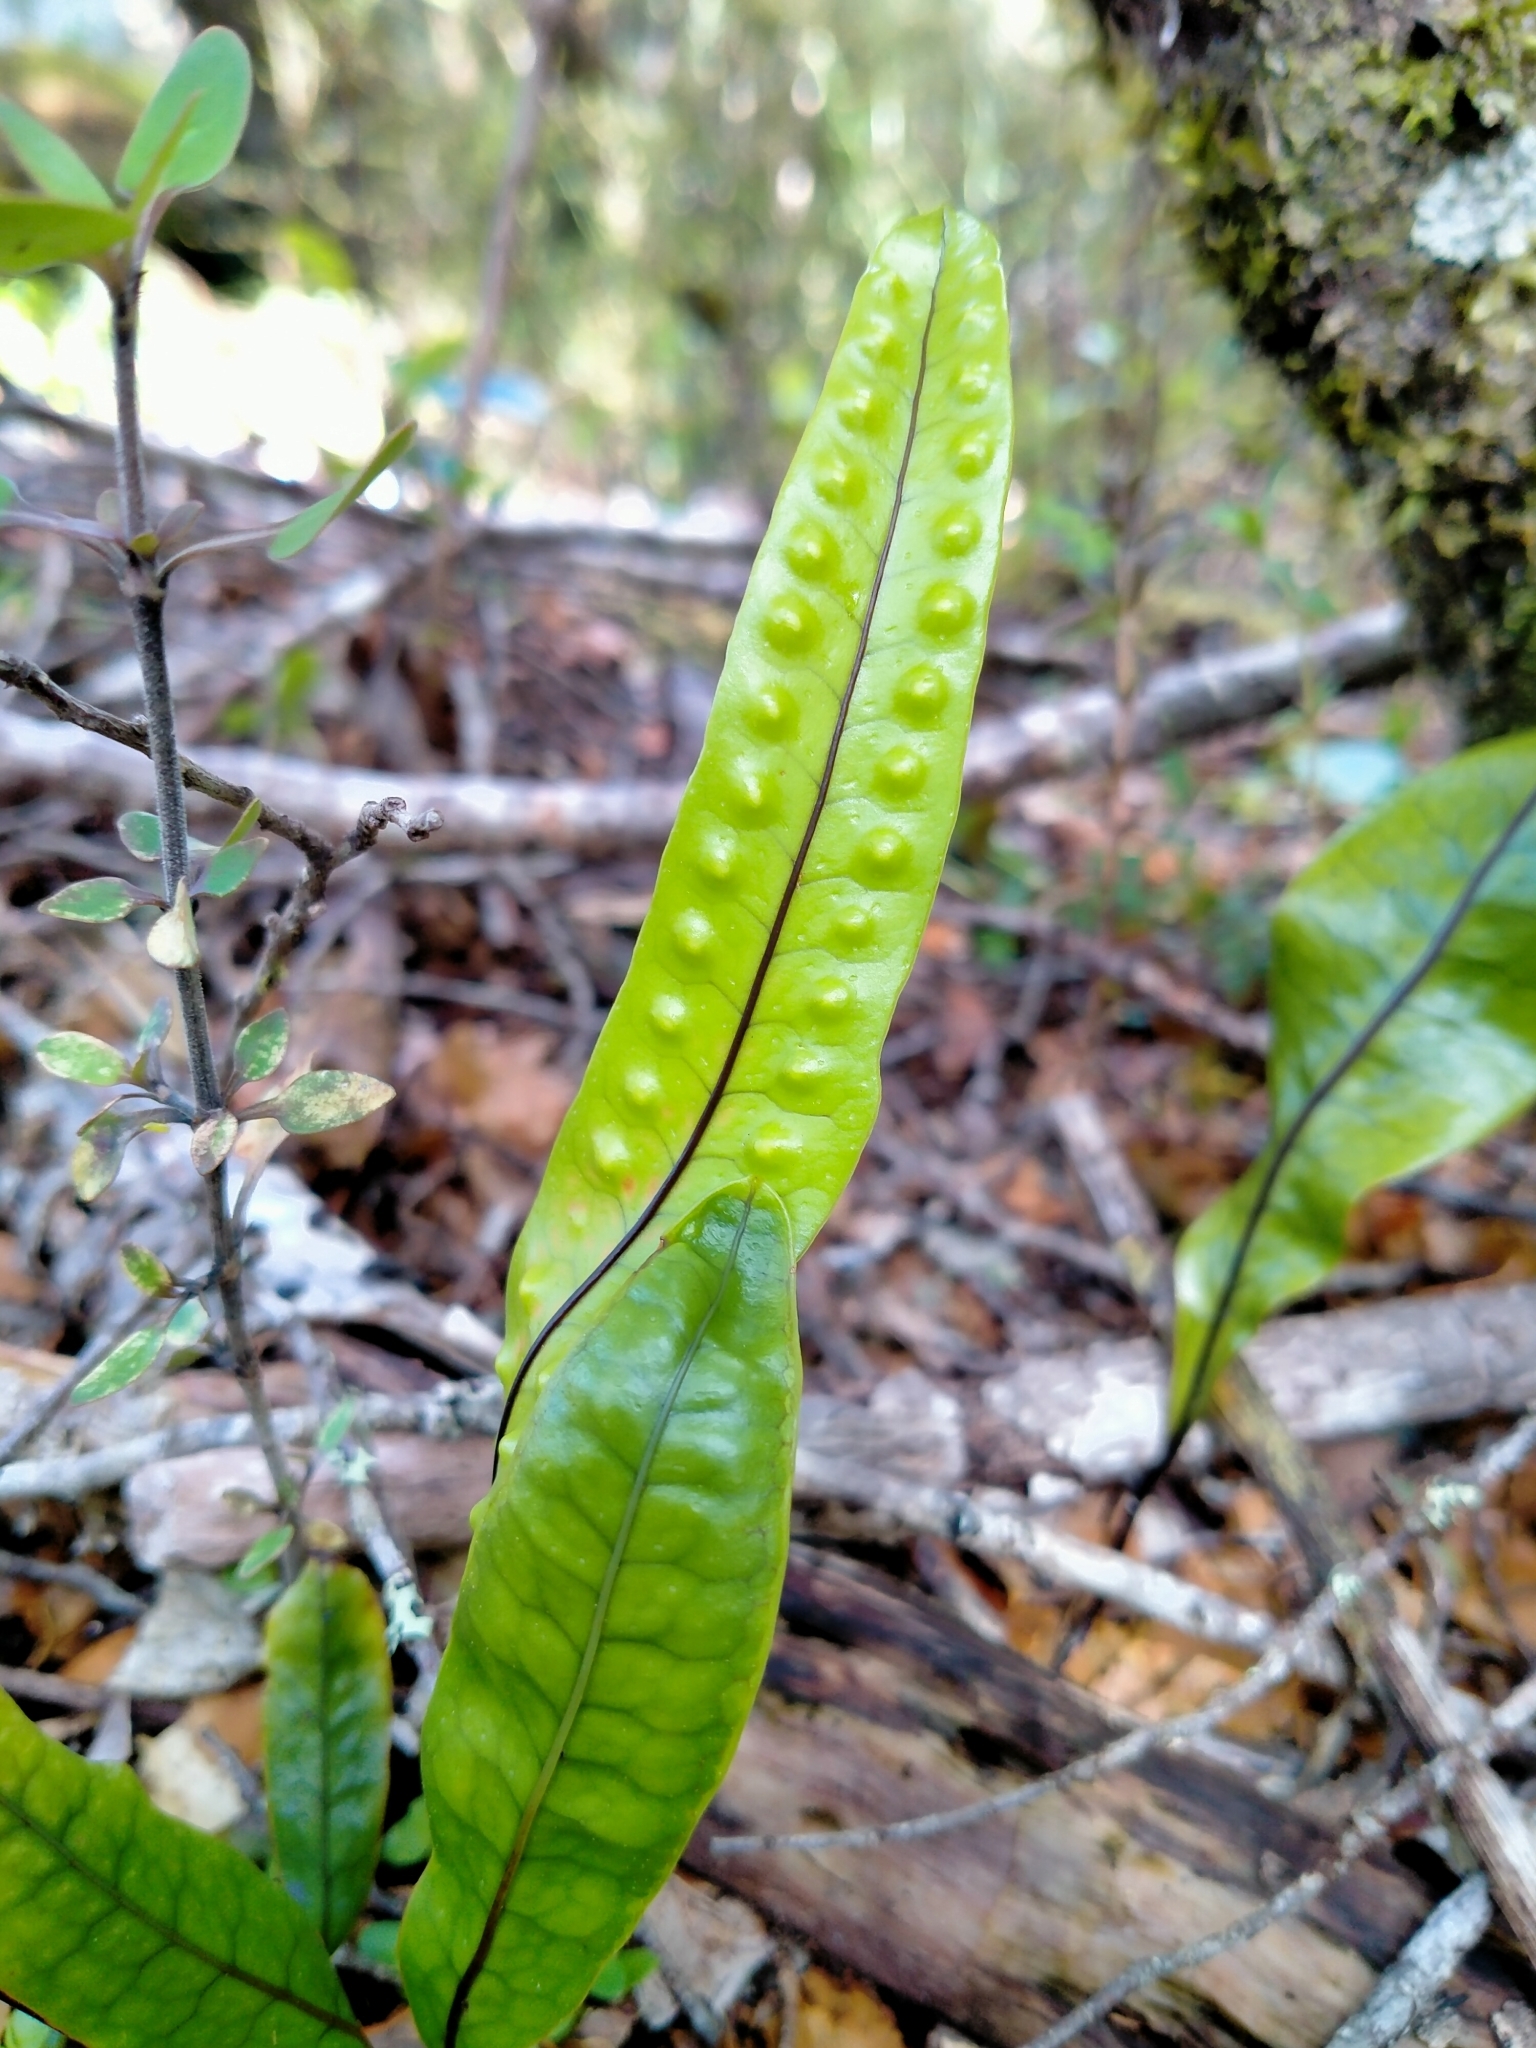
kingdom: Plantae
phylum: Tracheophyta
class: Polypodiopsida
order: Polypodiales
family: Polypodiaceae
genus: Lecanopteris
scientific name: Lecanopteris pustulata
